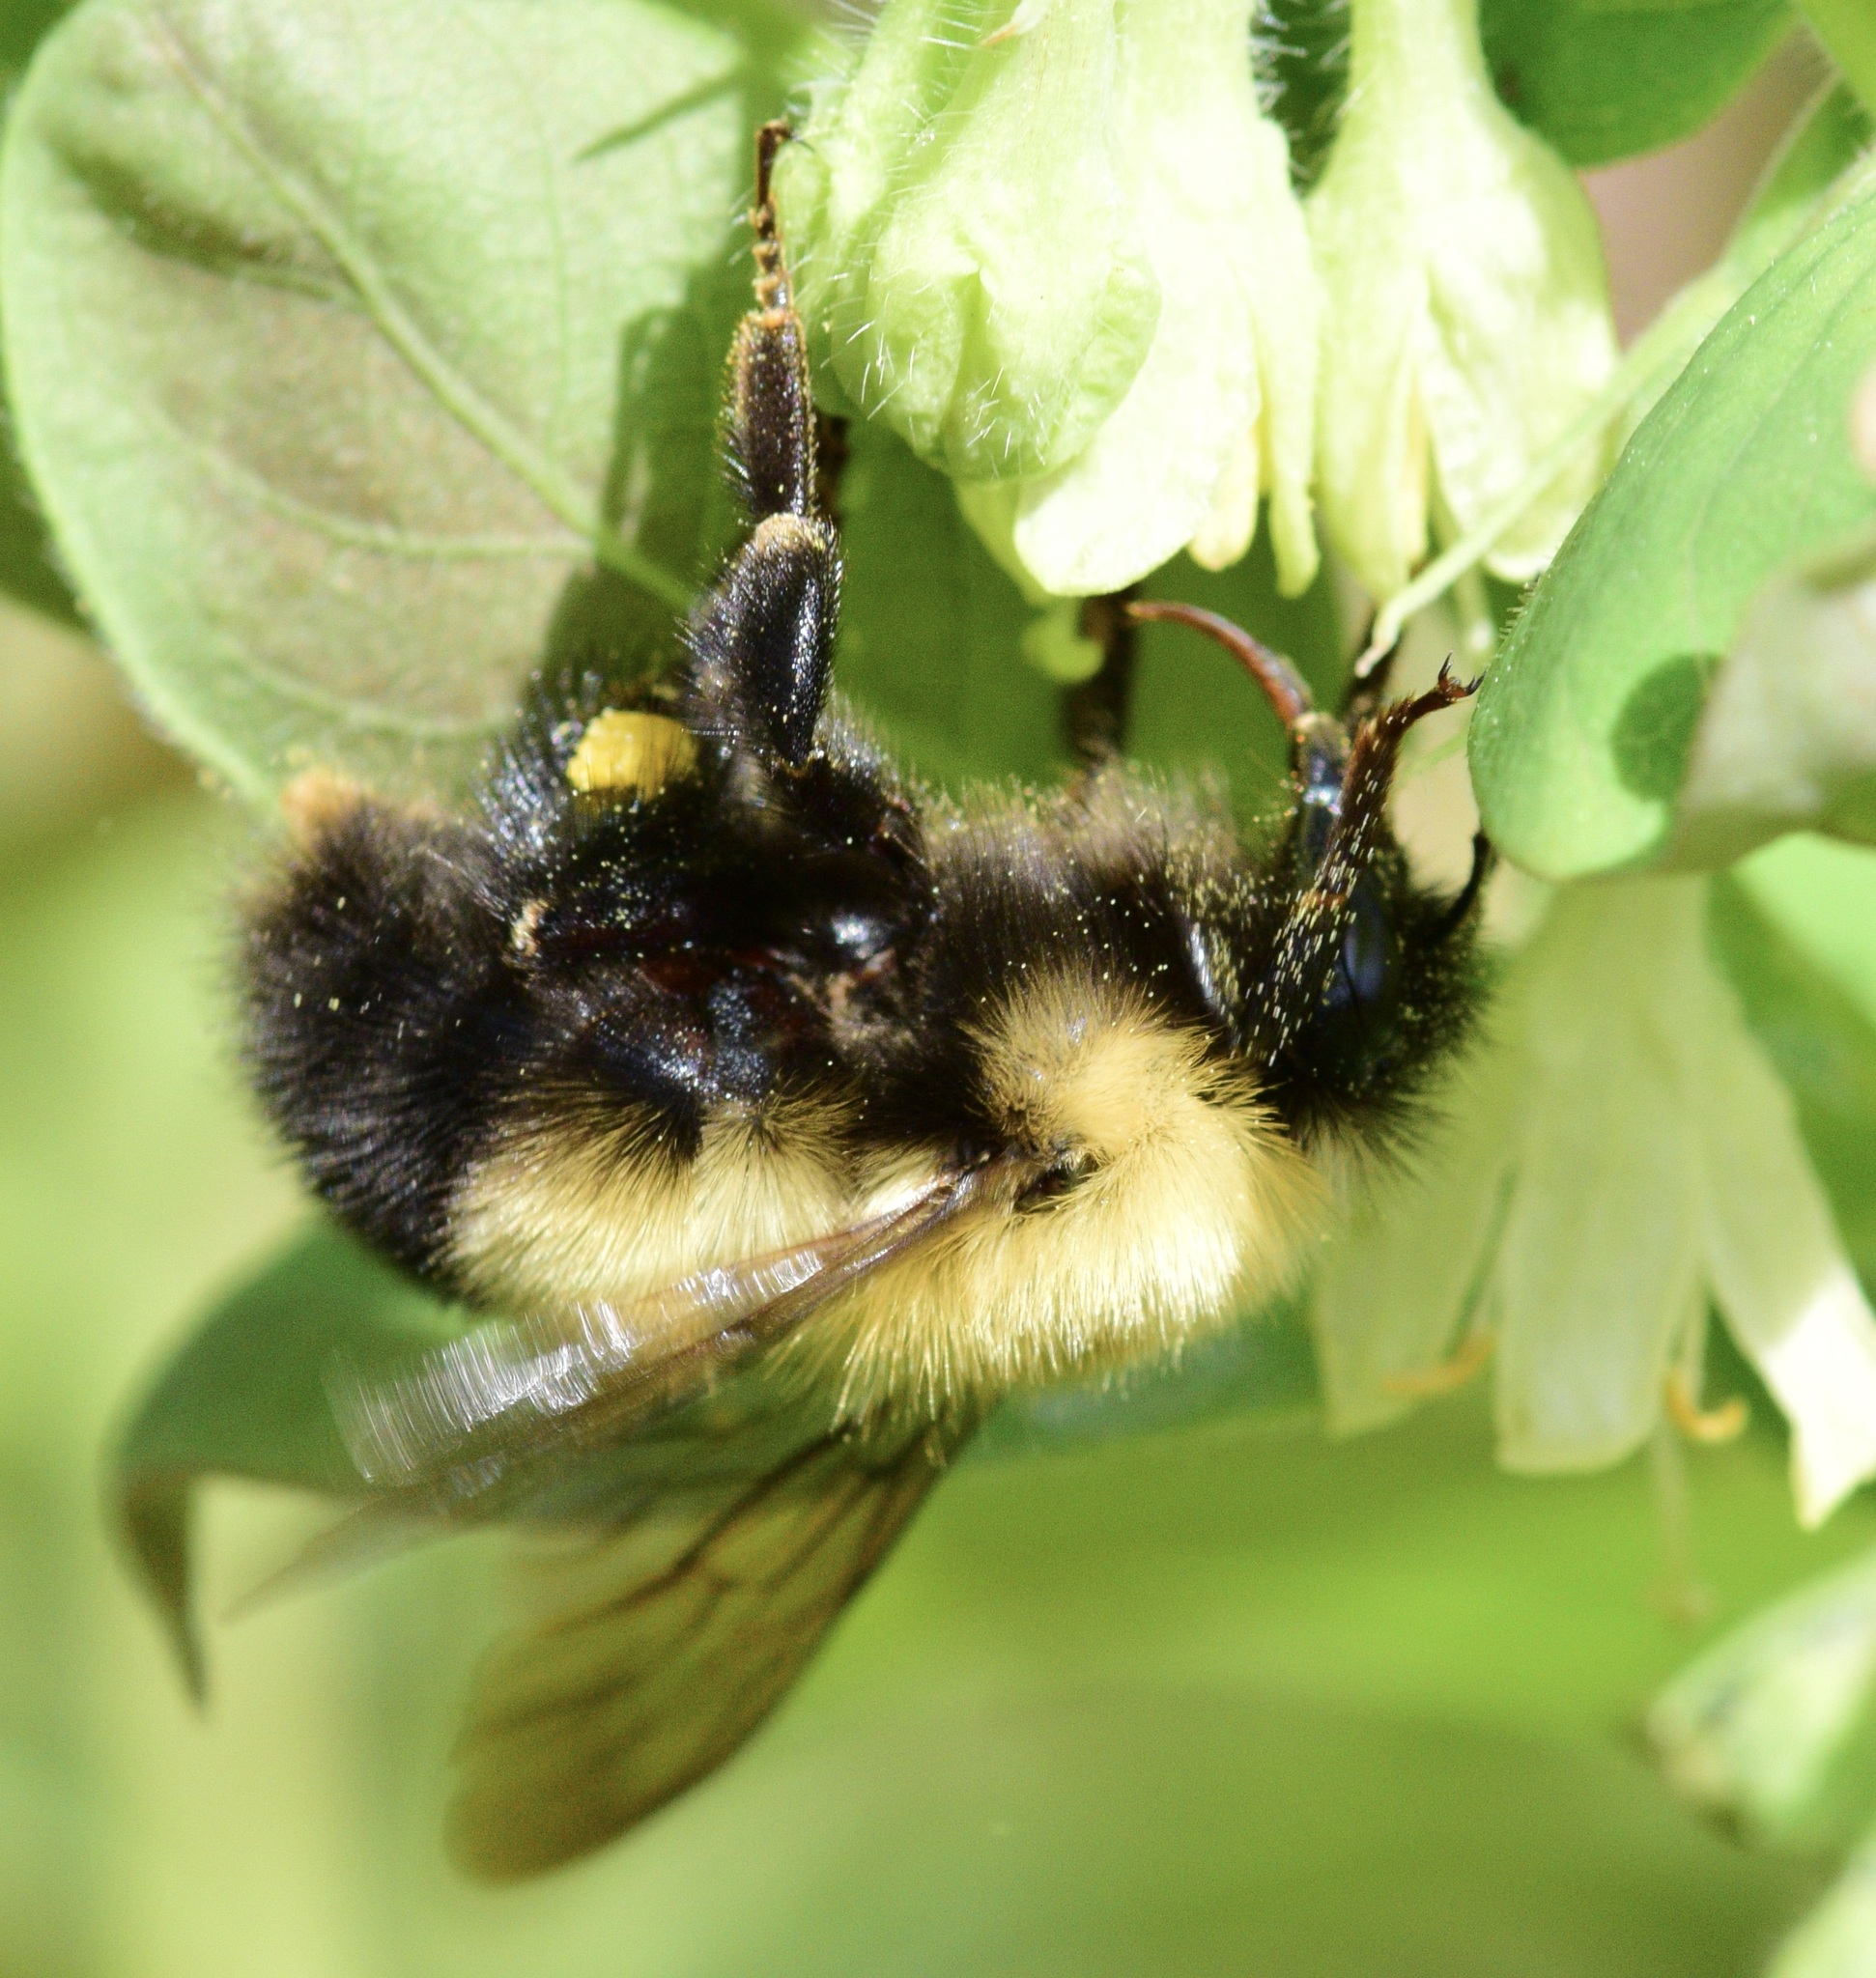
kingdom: Animalia
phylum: Arthropoda
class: Insecta
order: Hymenoptera
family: Apidae
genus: Bombus
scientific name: Bombus perplexus
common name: Confusing bumble bee
